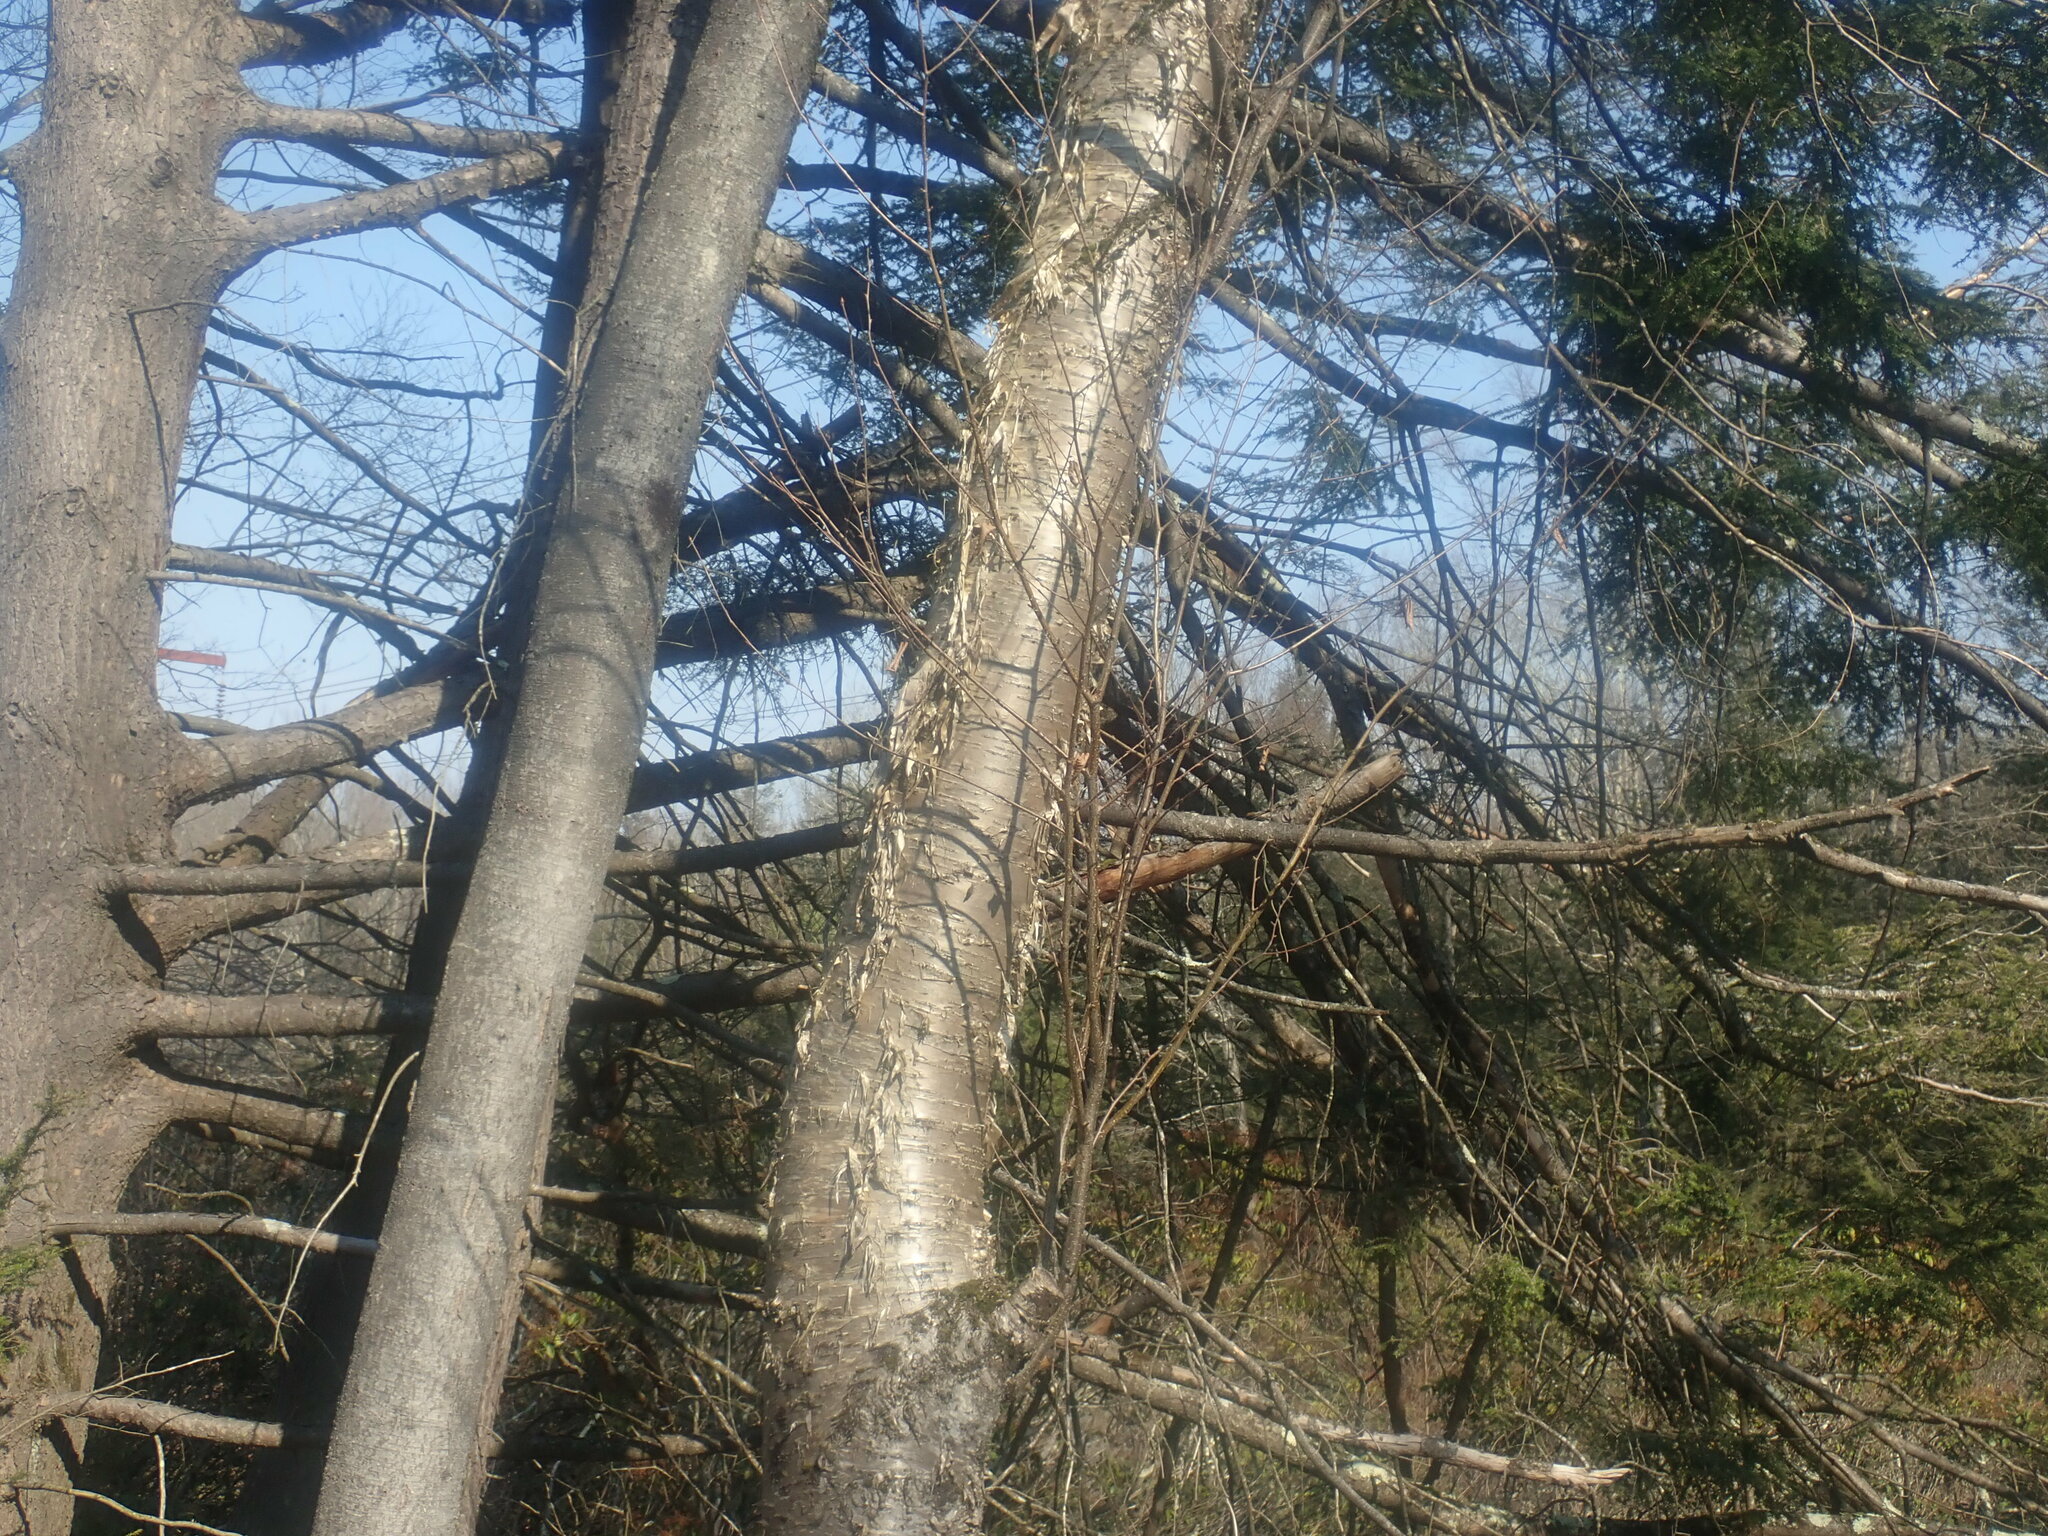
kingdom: Plantae
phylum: Tracheophyta
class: Magnoliopsida
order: Fagales
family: Betulaceae
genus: Betula
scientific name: Betula alleghaniensis
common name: Yellow birch
